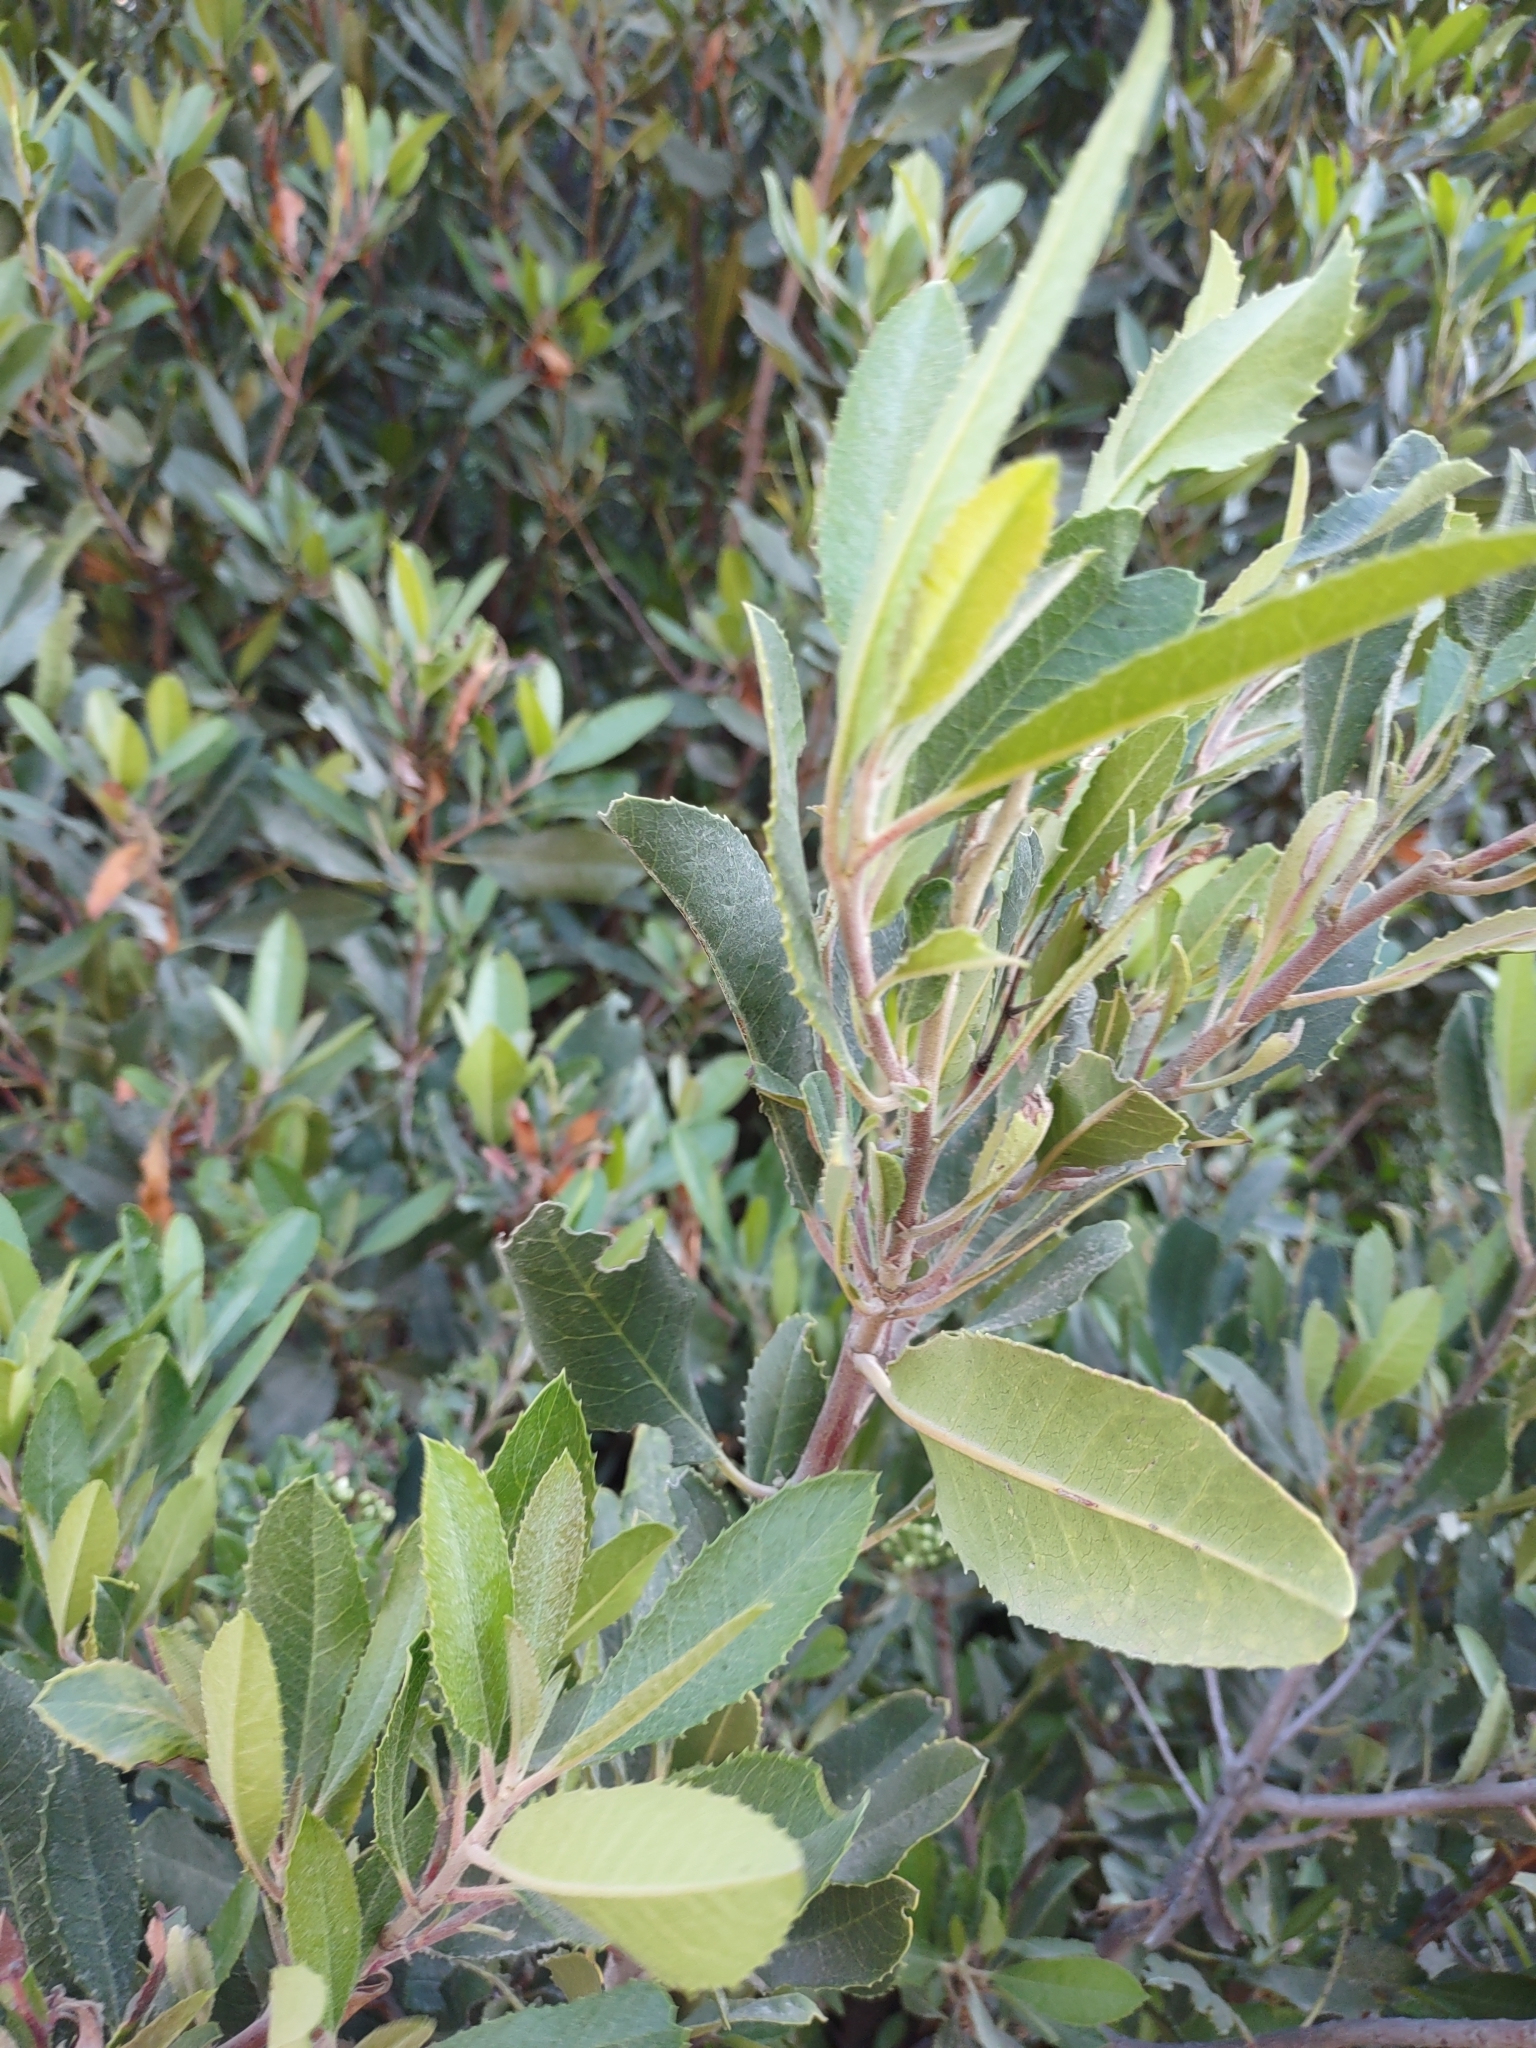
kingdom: Plantae
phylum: Tracheophyta
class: Magnoliopsida
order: Rosales
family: Rosaceae
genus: Heteromeles
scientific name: Heteromeles arbutifolia
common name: California-holly
